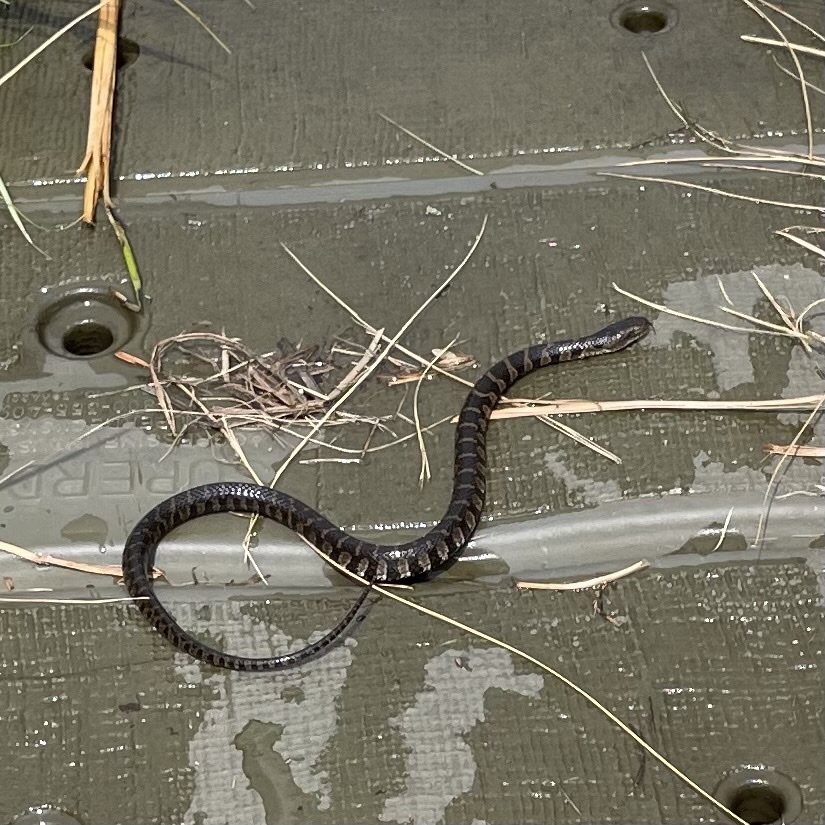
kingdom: Animalia
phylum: Chordata
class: Squamata
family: Colubridae
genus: Nerodia
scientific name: Nerodia sipedon
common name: Northern water snake
